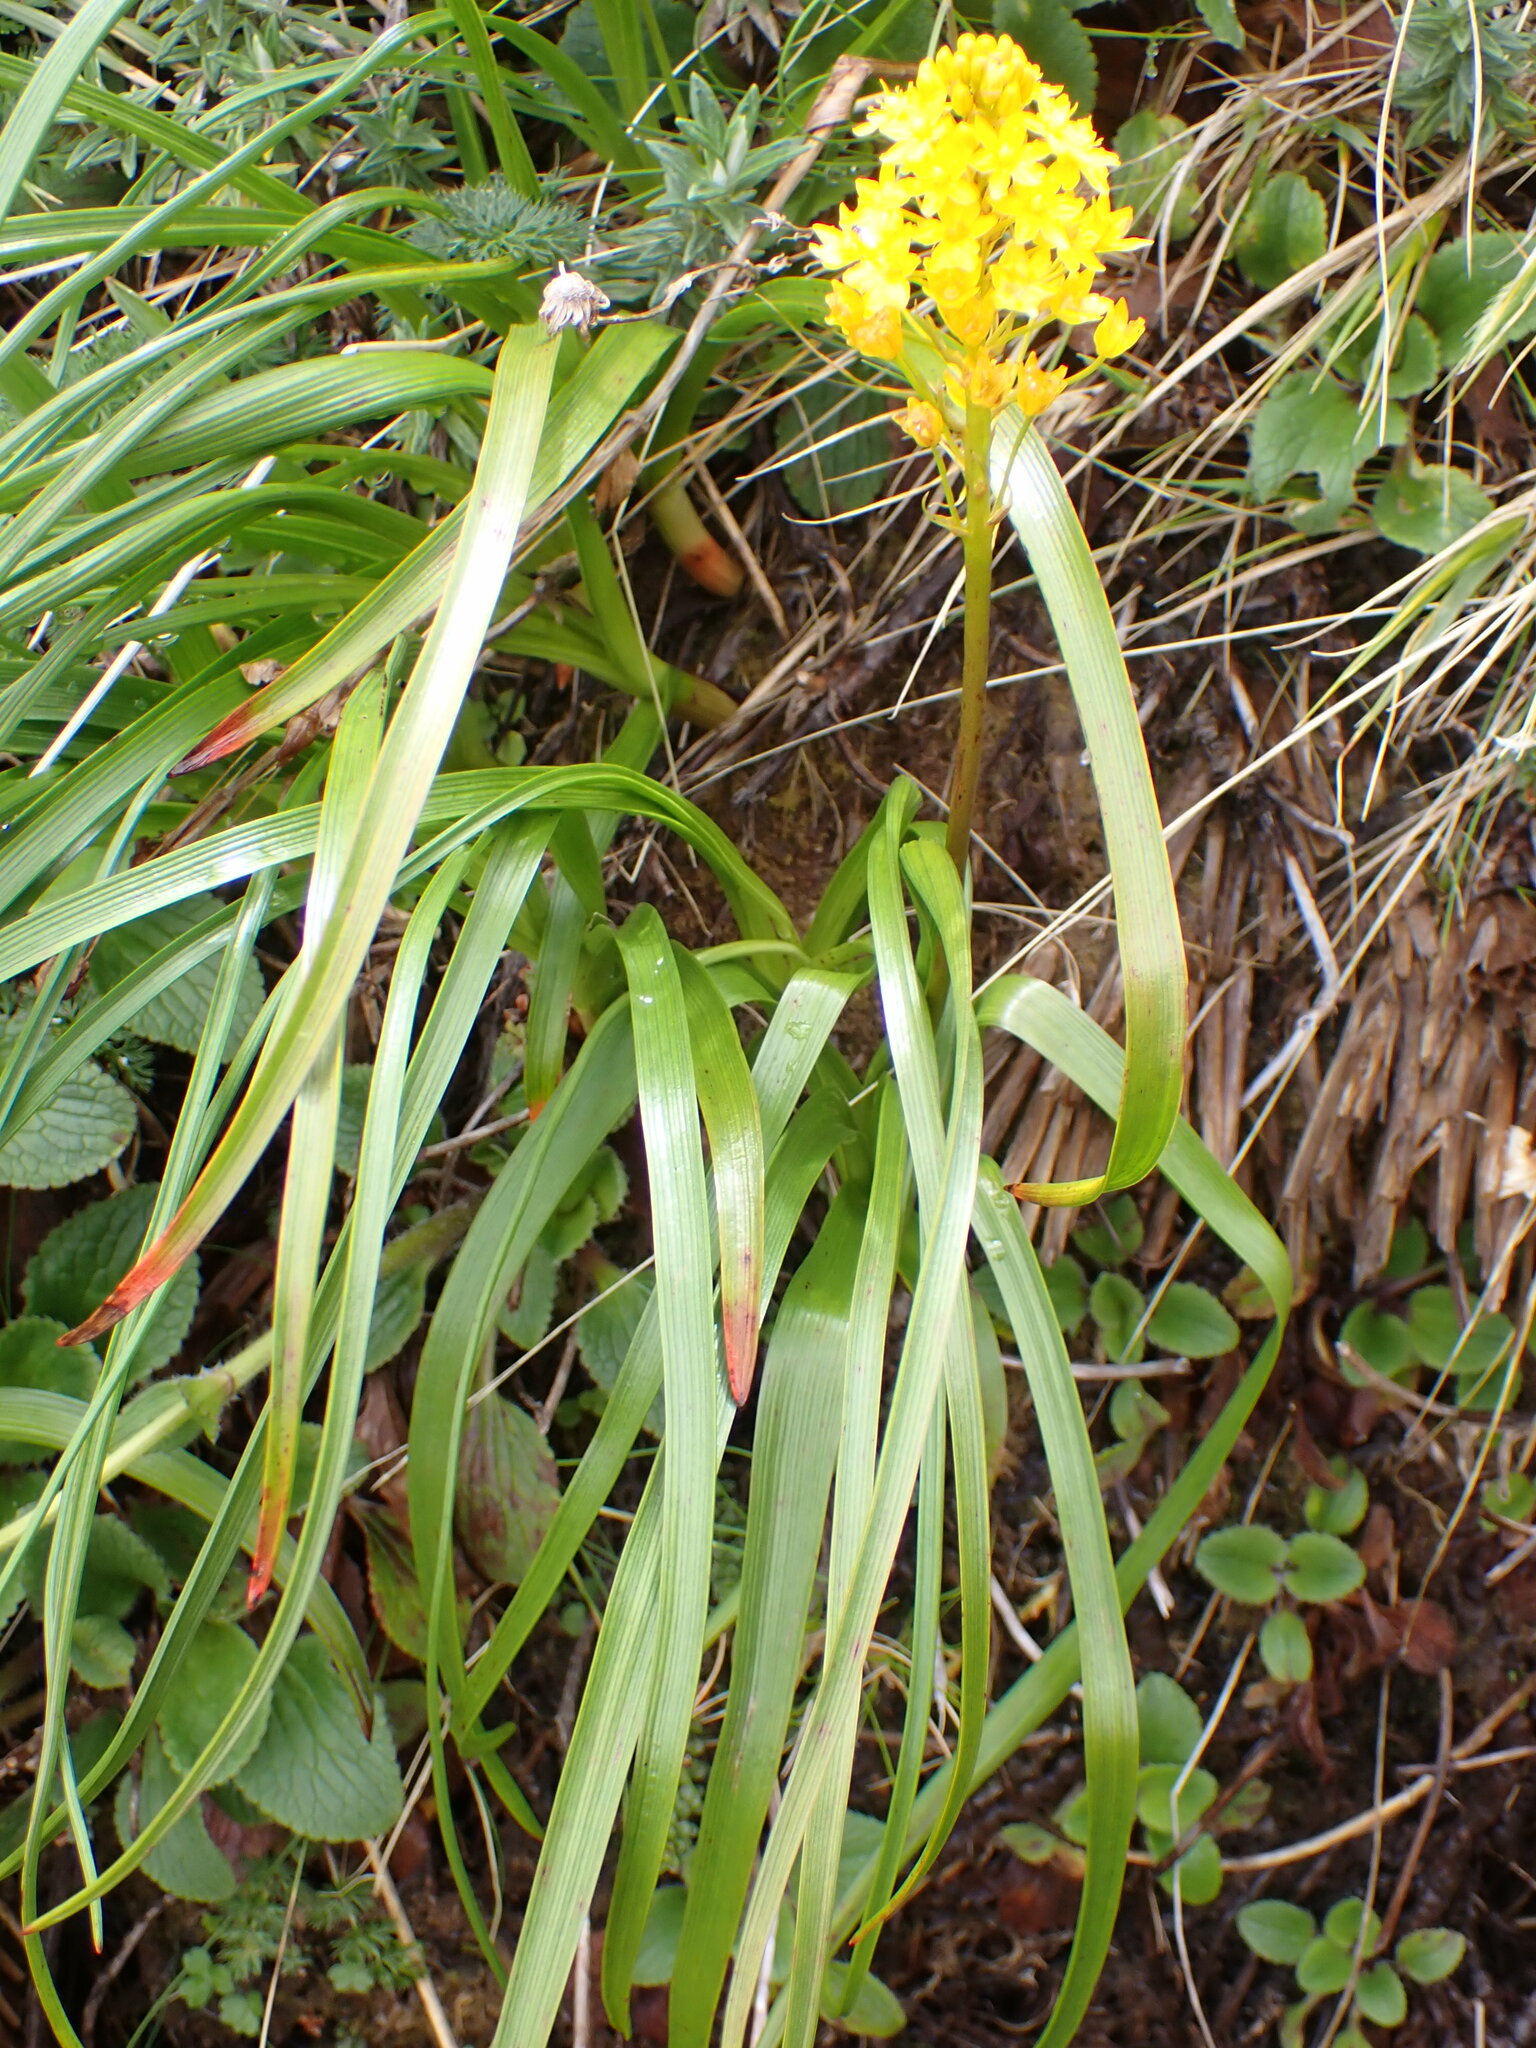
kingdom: Plantae
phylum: Tracheophyta
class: Liliopsida
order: Asparagales
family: Asphodelaceae
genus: Bulbinella
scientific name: Bulbinella gibbsii
